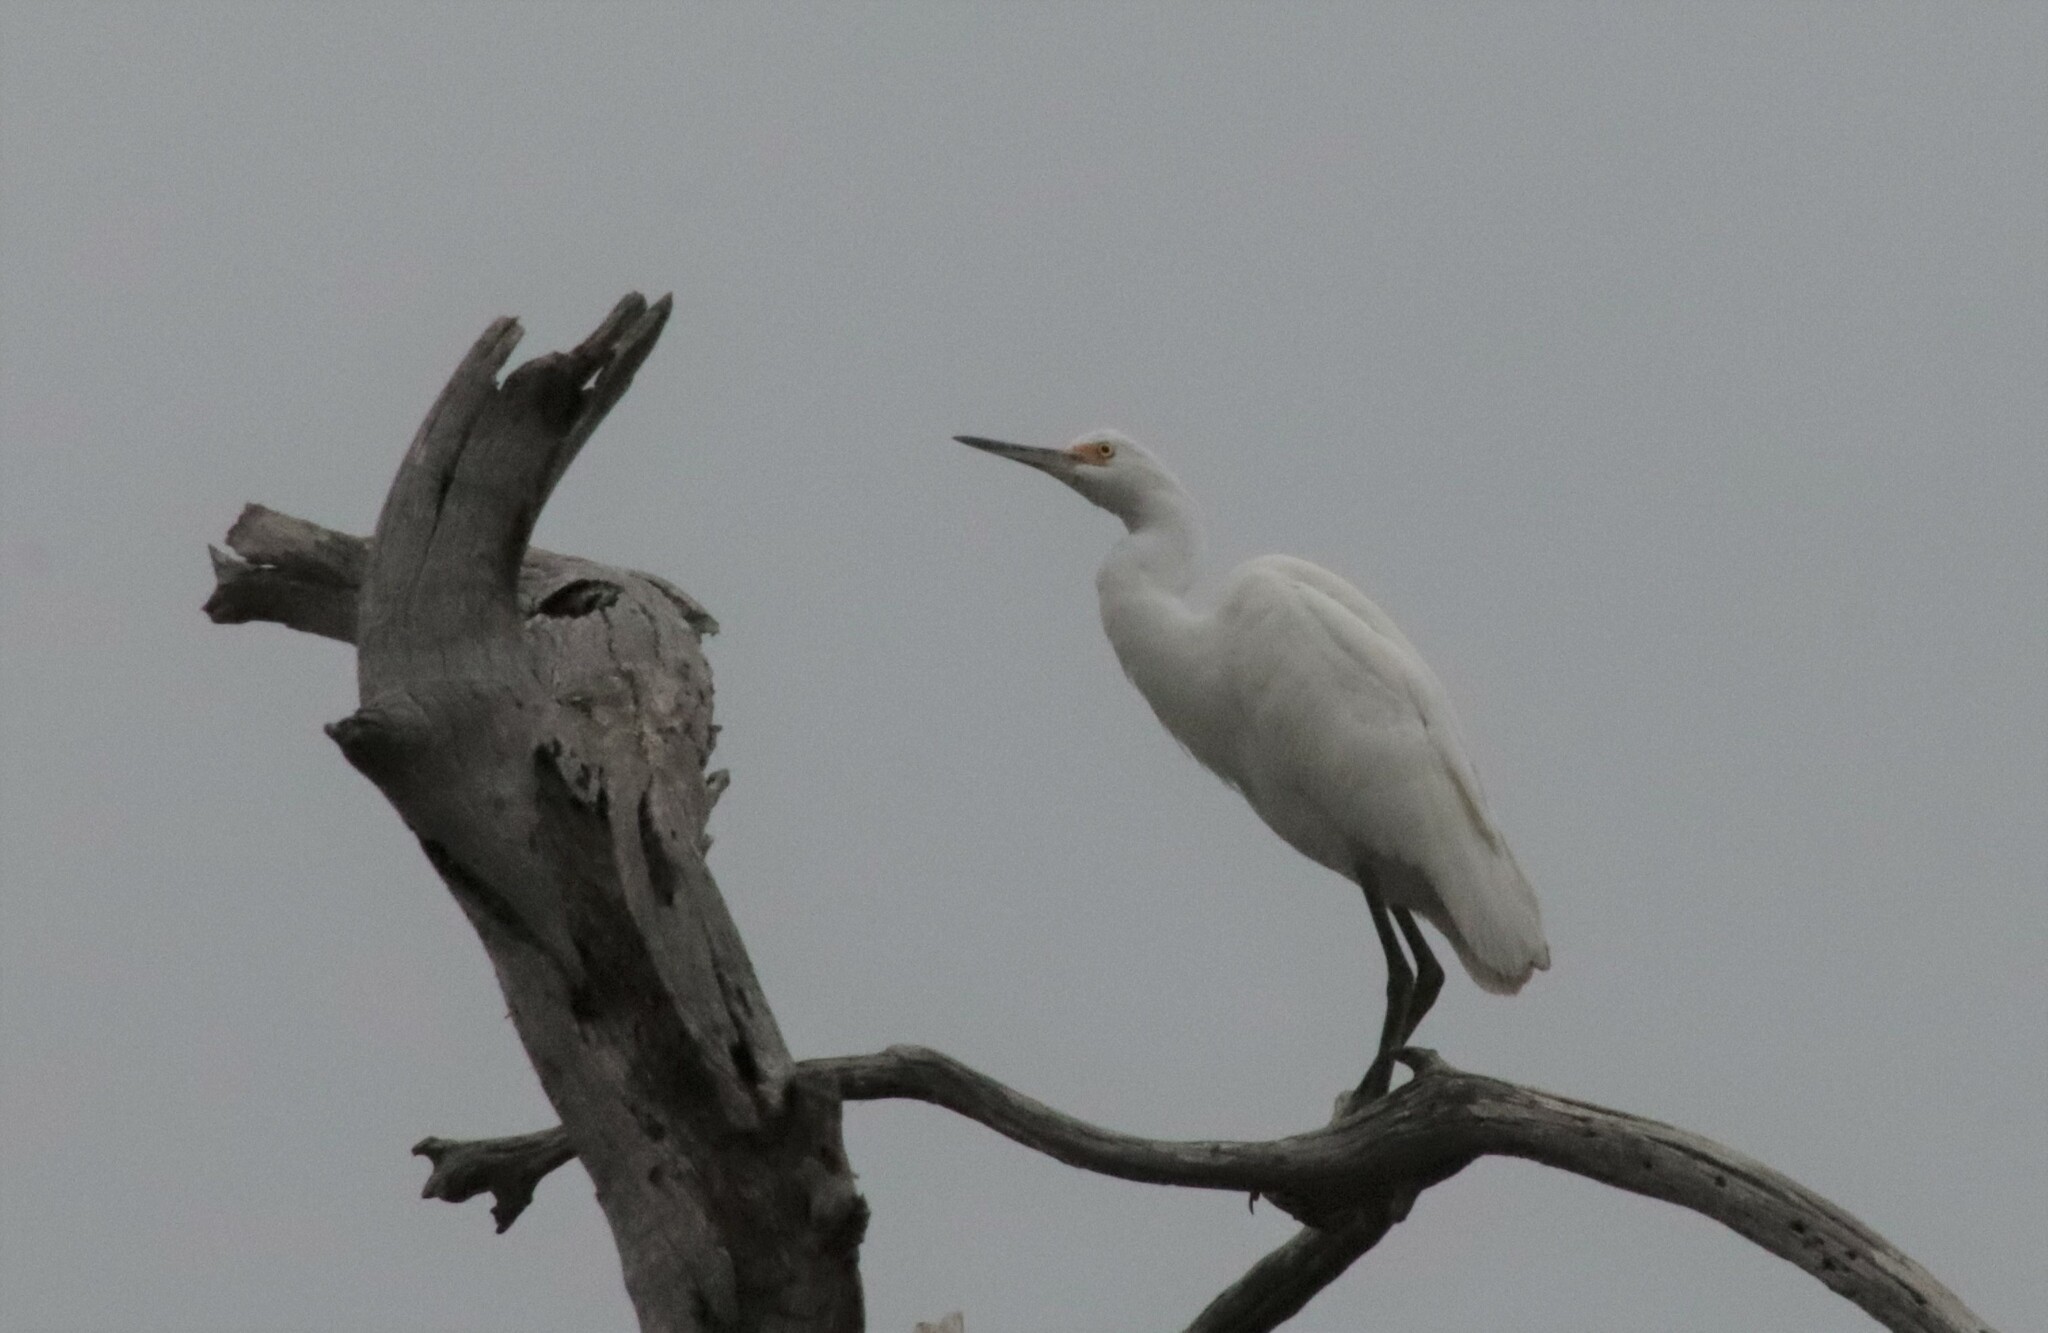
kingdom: Animalia
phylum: Chordata
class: Aves
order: Pelecaniformes
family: Ardeidae
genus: Egretta
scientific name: Egretta thula
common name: Snowy egret
